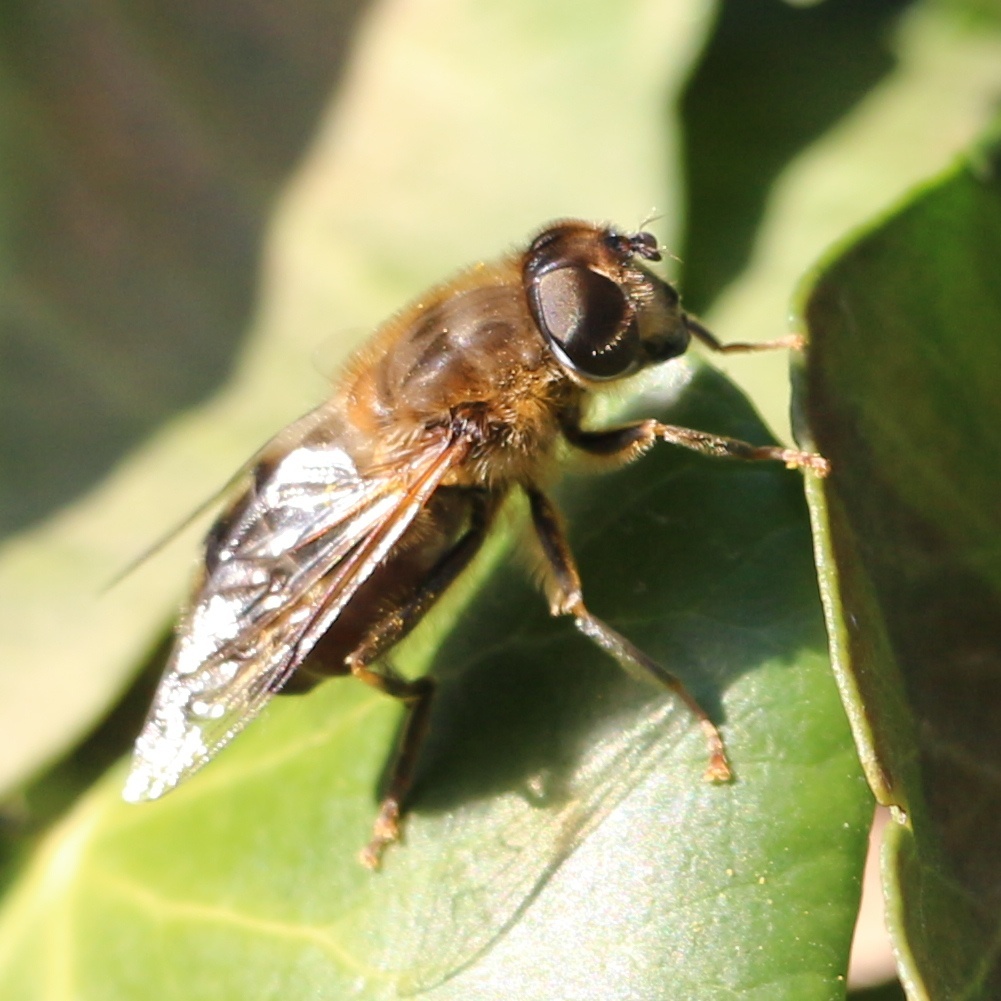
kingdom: Animalia
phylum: Arthropoda
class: Insecta
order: Diptera
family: Syrphidae
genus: Eristalis
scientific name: Eristalis pertinax
